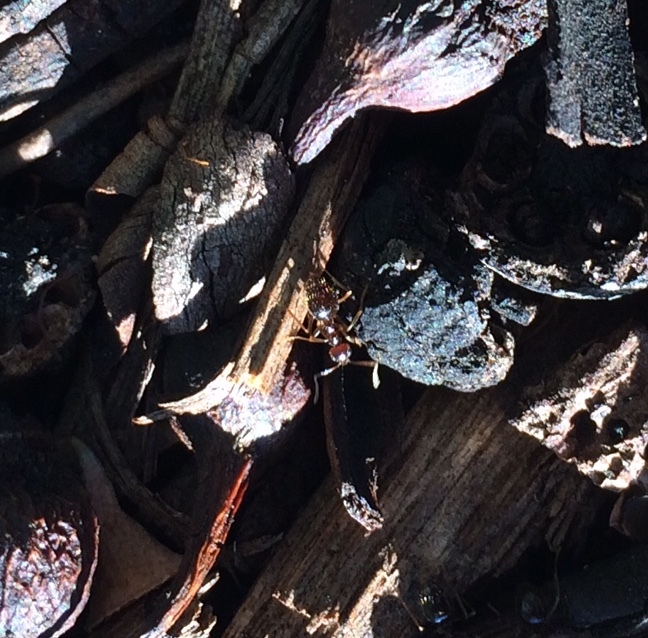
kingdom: Animalia
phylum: Arthropoda
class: Insecta
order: Hymenoptera
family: Formicidae
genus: Prenolepis
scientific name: Prenolepis imparis
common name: Small honey ant
